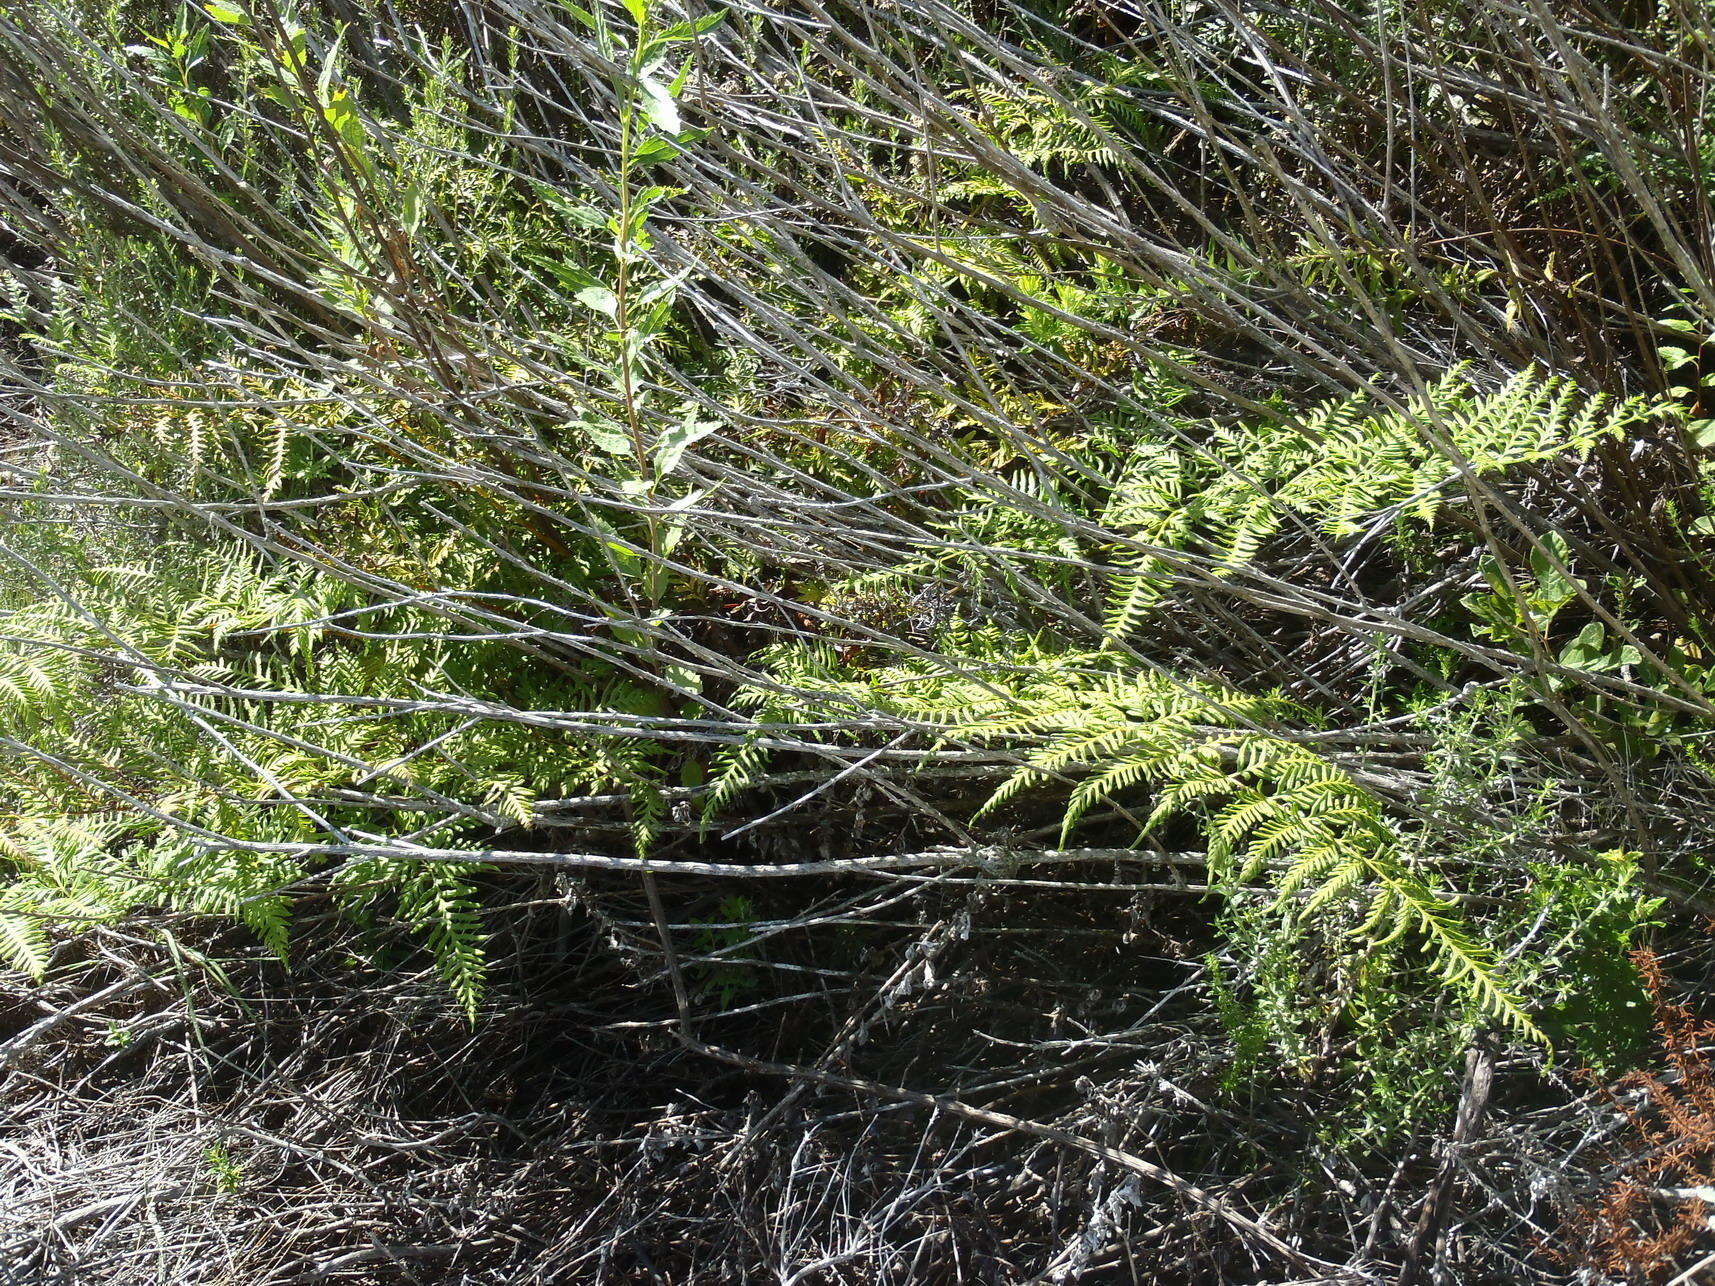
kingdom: Plantae
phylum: Tracheophyta
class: Polypodiopsida
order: Polypodiales
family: Dennstaedtiaceae
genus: Pteridium
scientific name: Pteridium aquilinum
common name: Bracken
